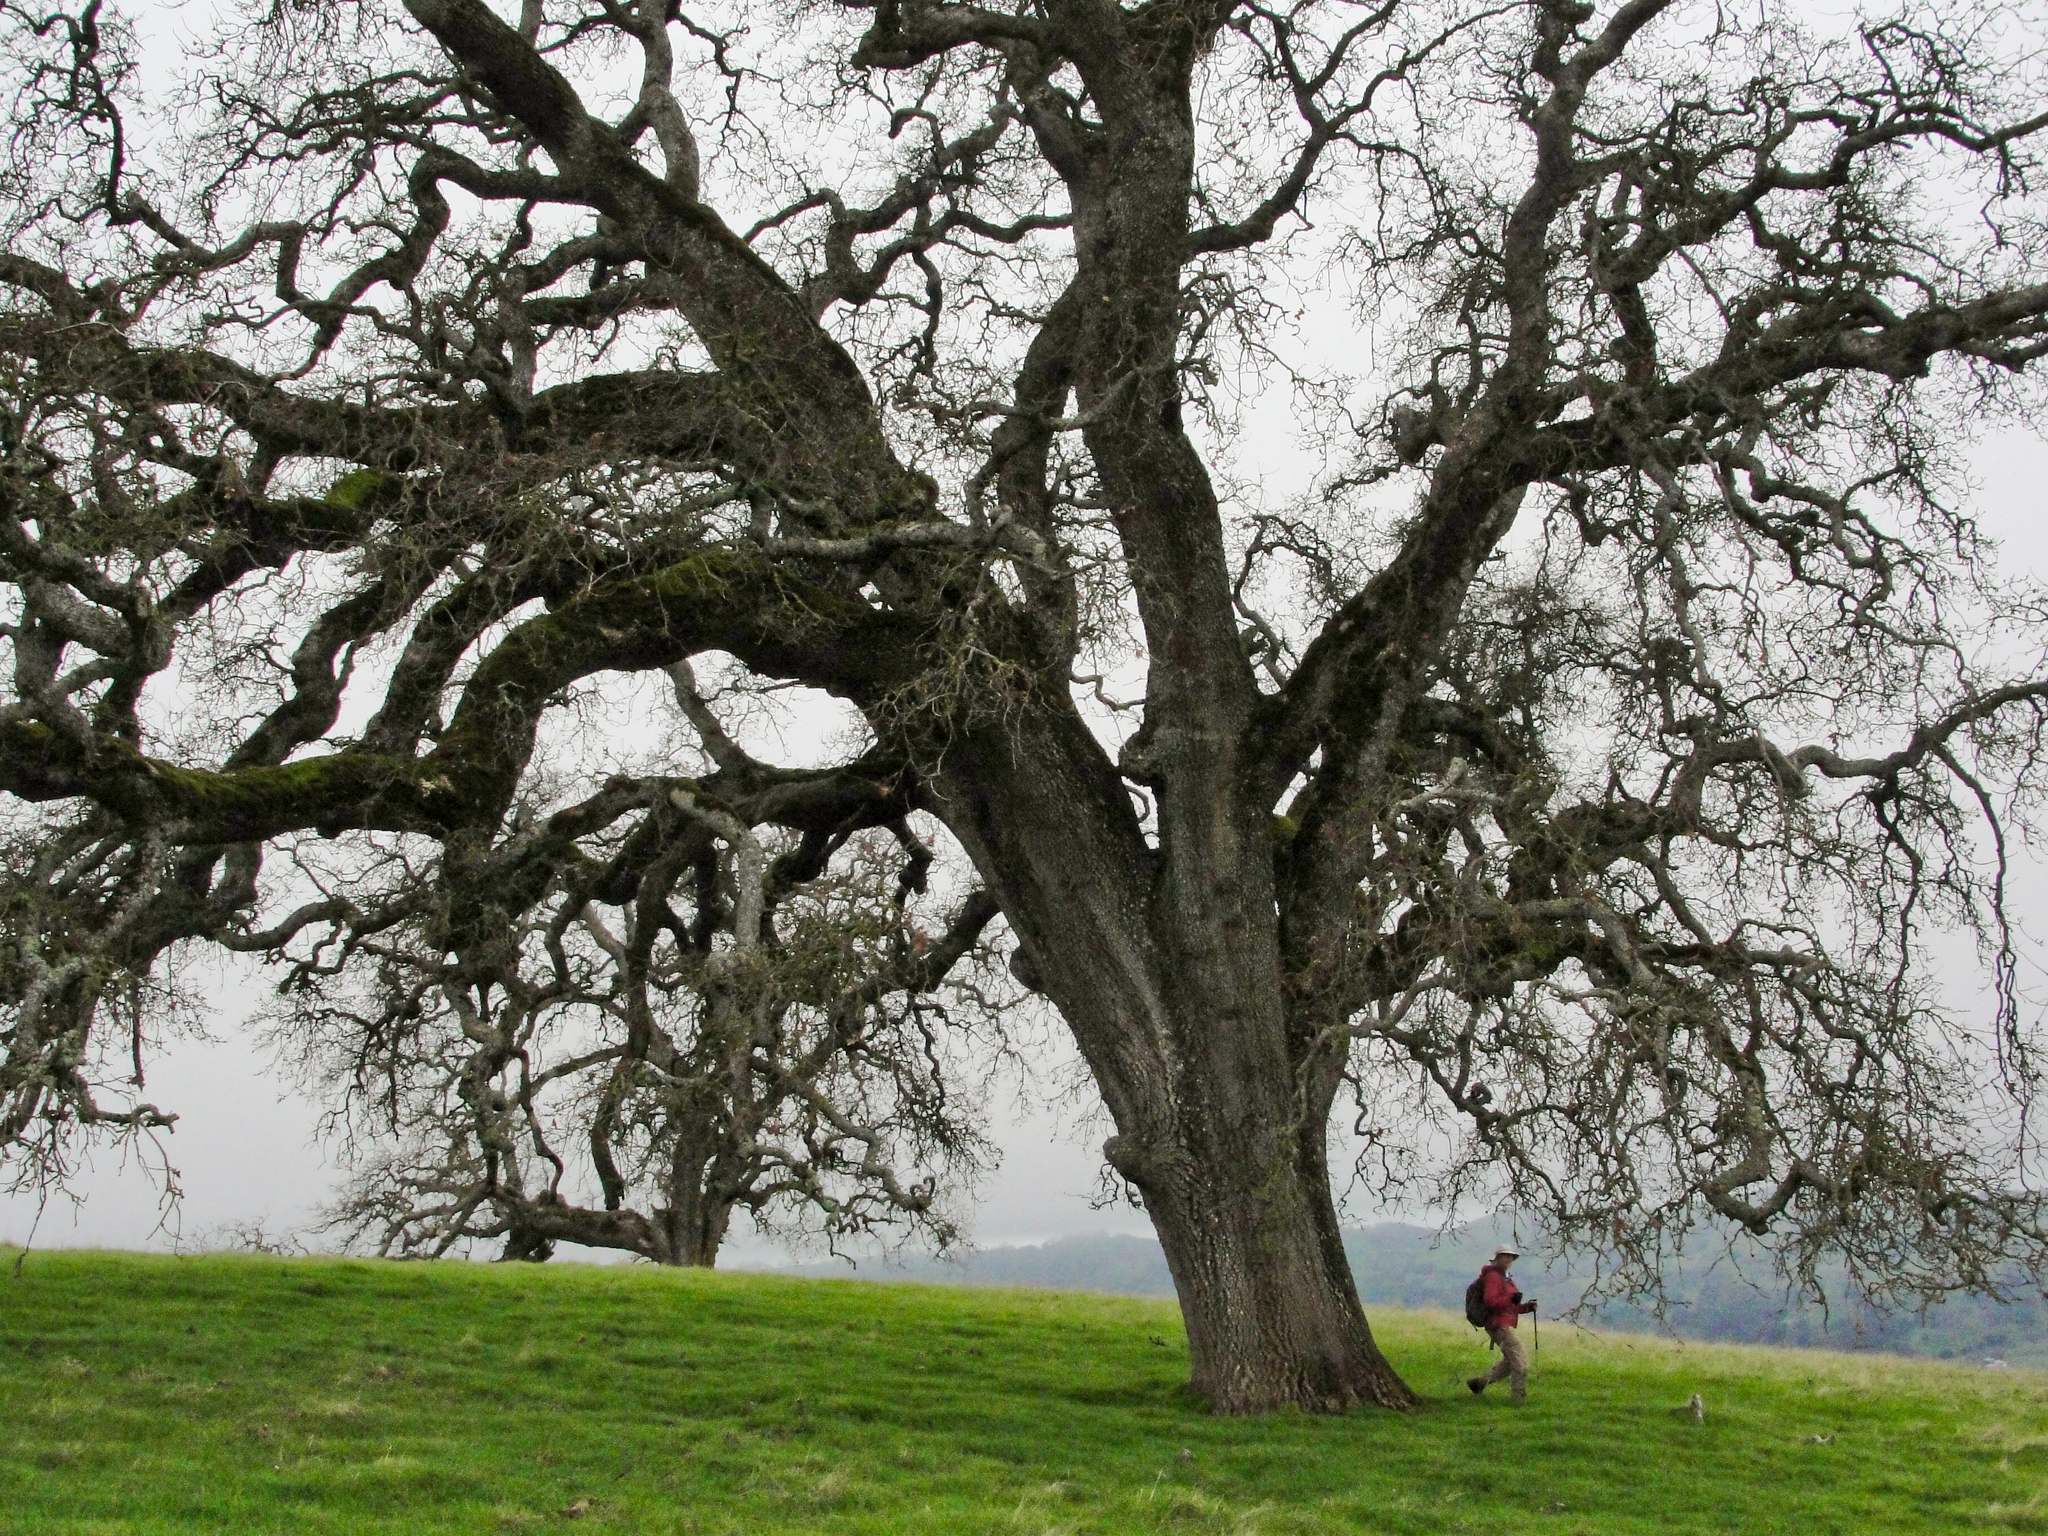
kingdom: Plantae
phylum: Tracheophyta
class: Magnoliopsida
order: Fagales
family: Fagaceae
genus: Quercus
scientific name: Quercus lobata
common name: Valley oak
